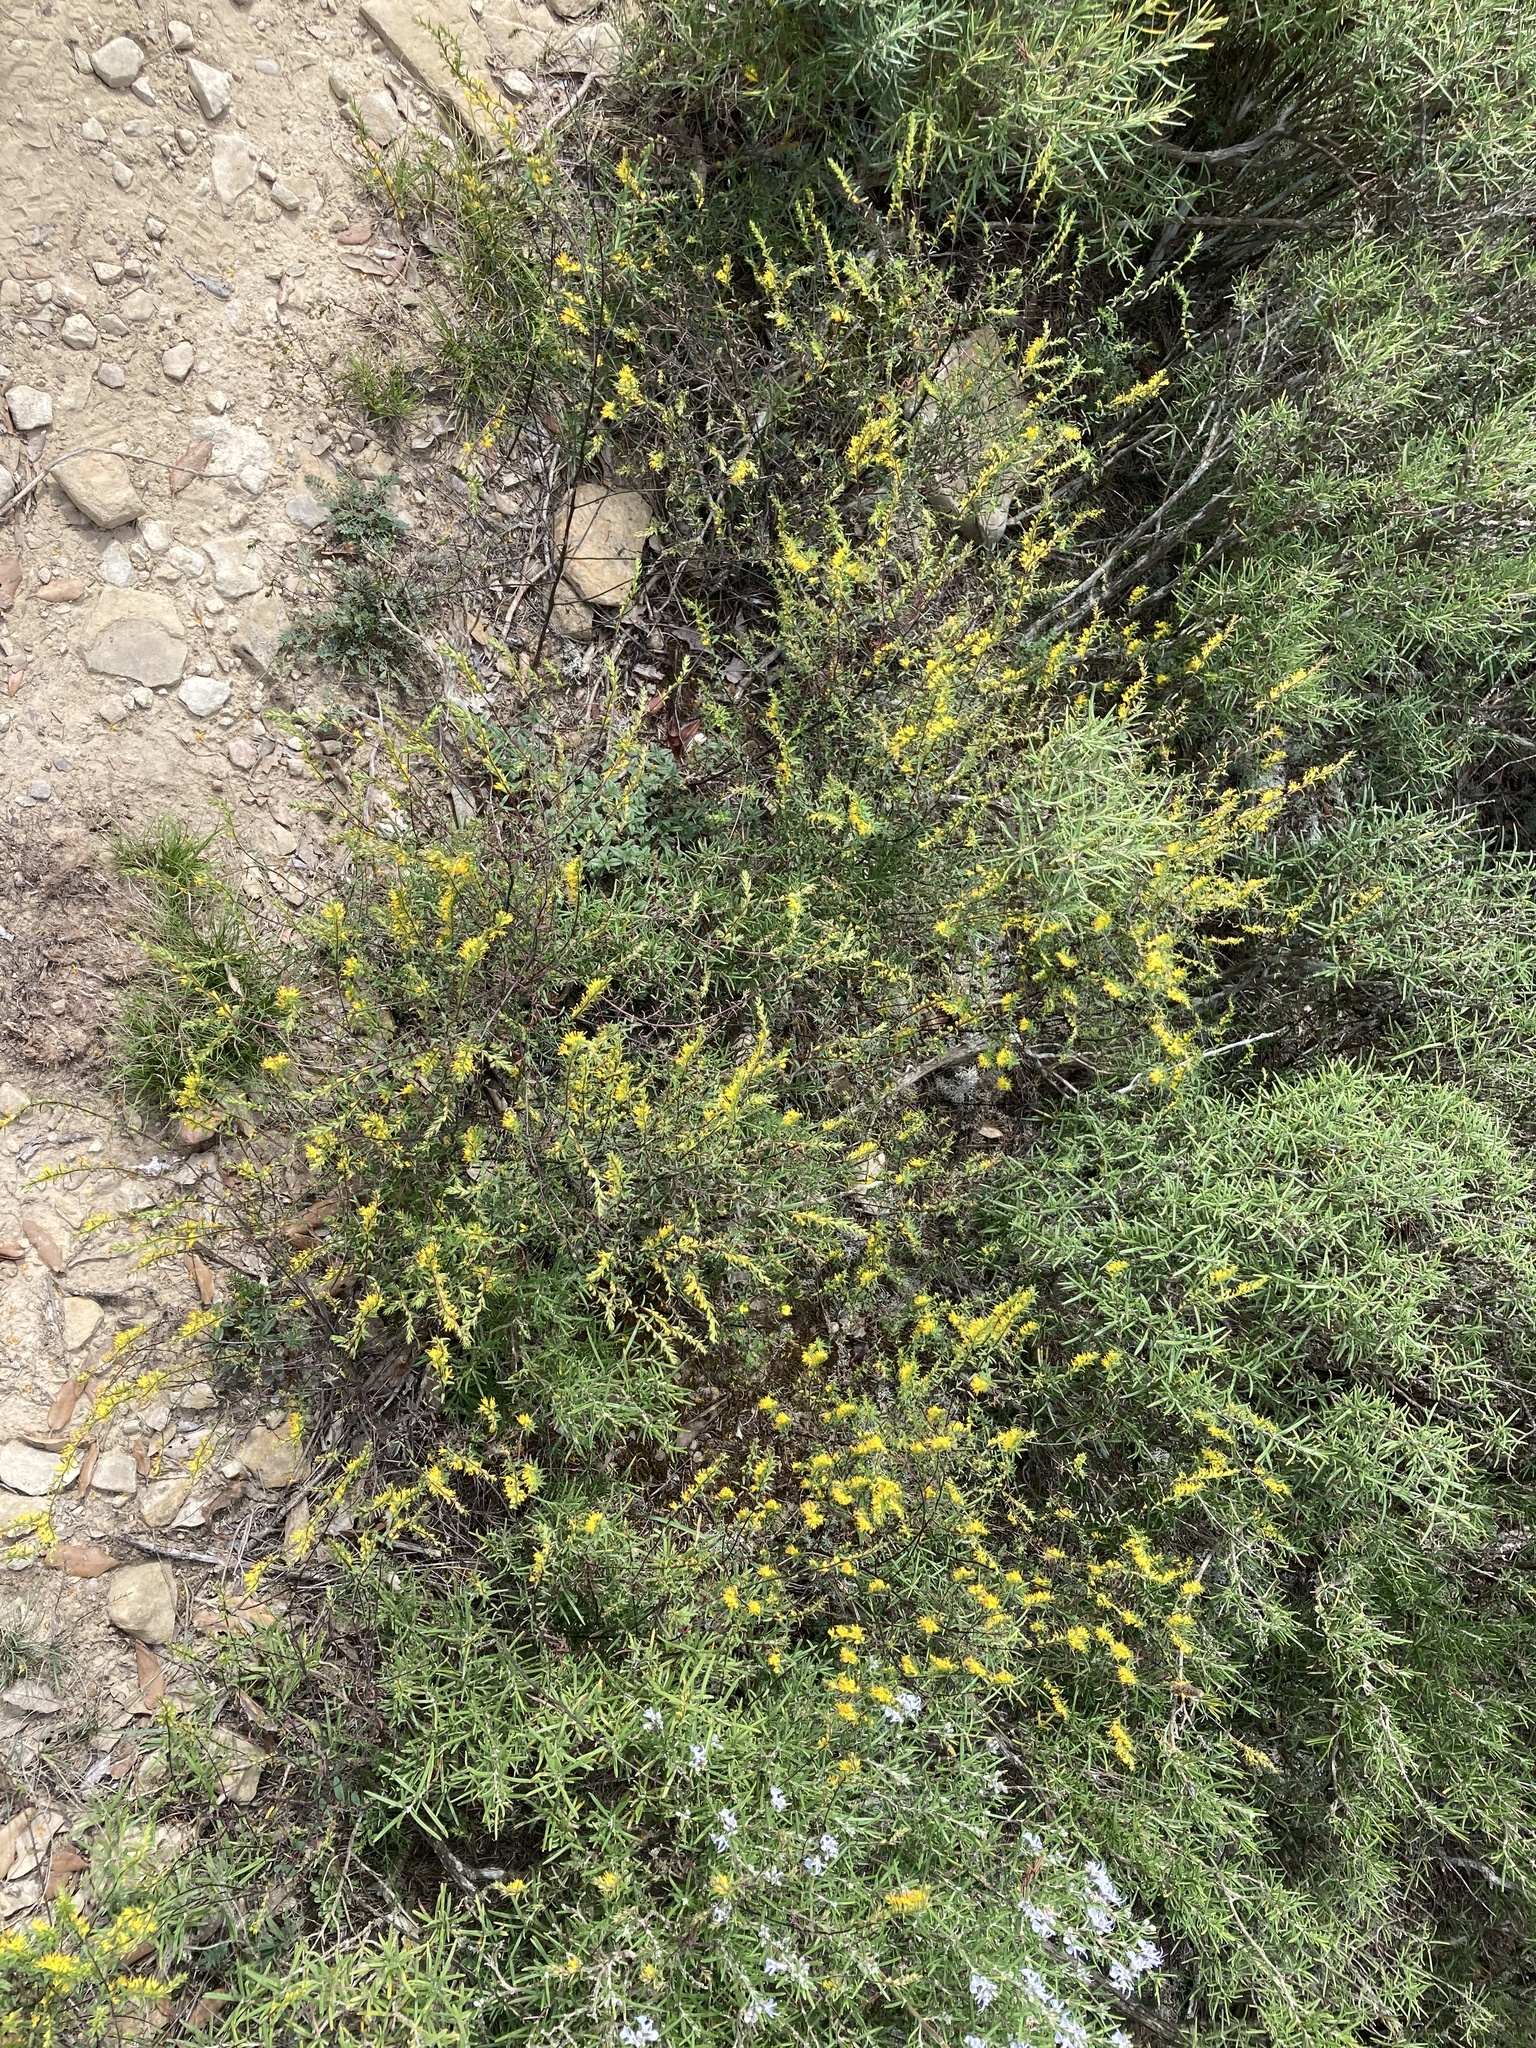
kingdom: Plantae
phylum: Tracheophyta
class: Magnoliopsida
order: Lamiales
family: Orobanchaceae
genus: Odontites
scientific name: Odontites luteus
